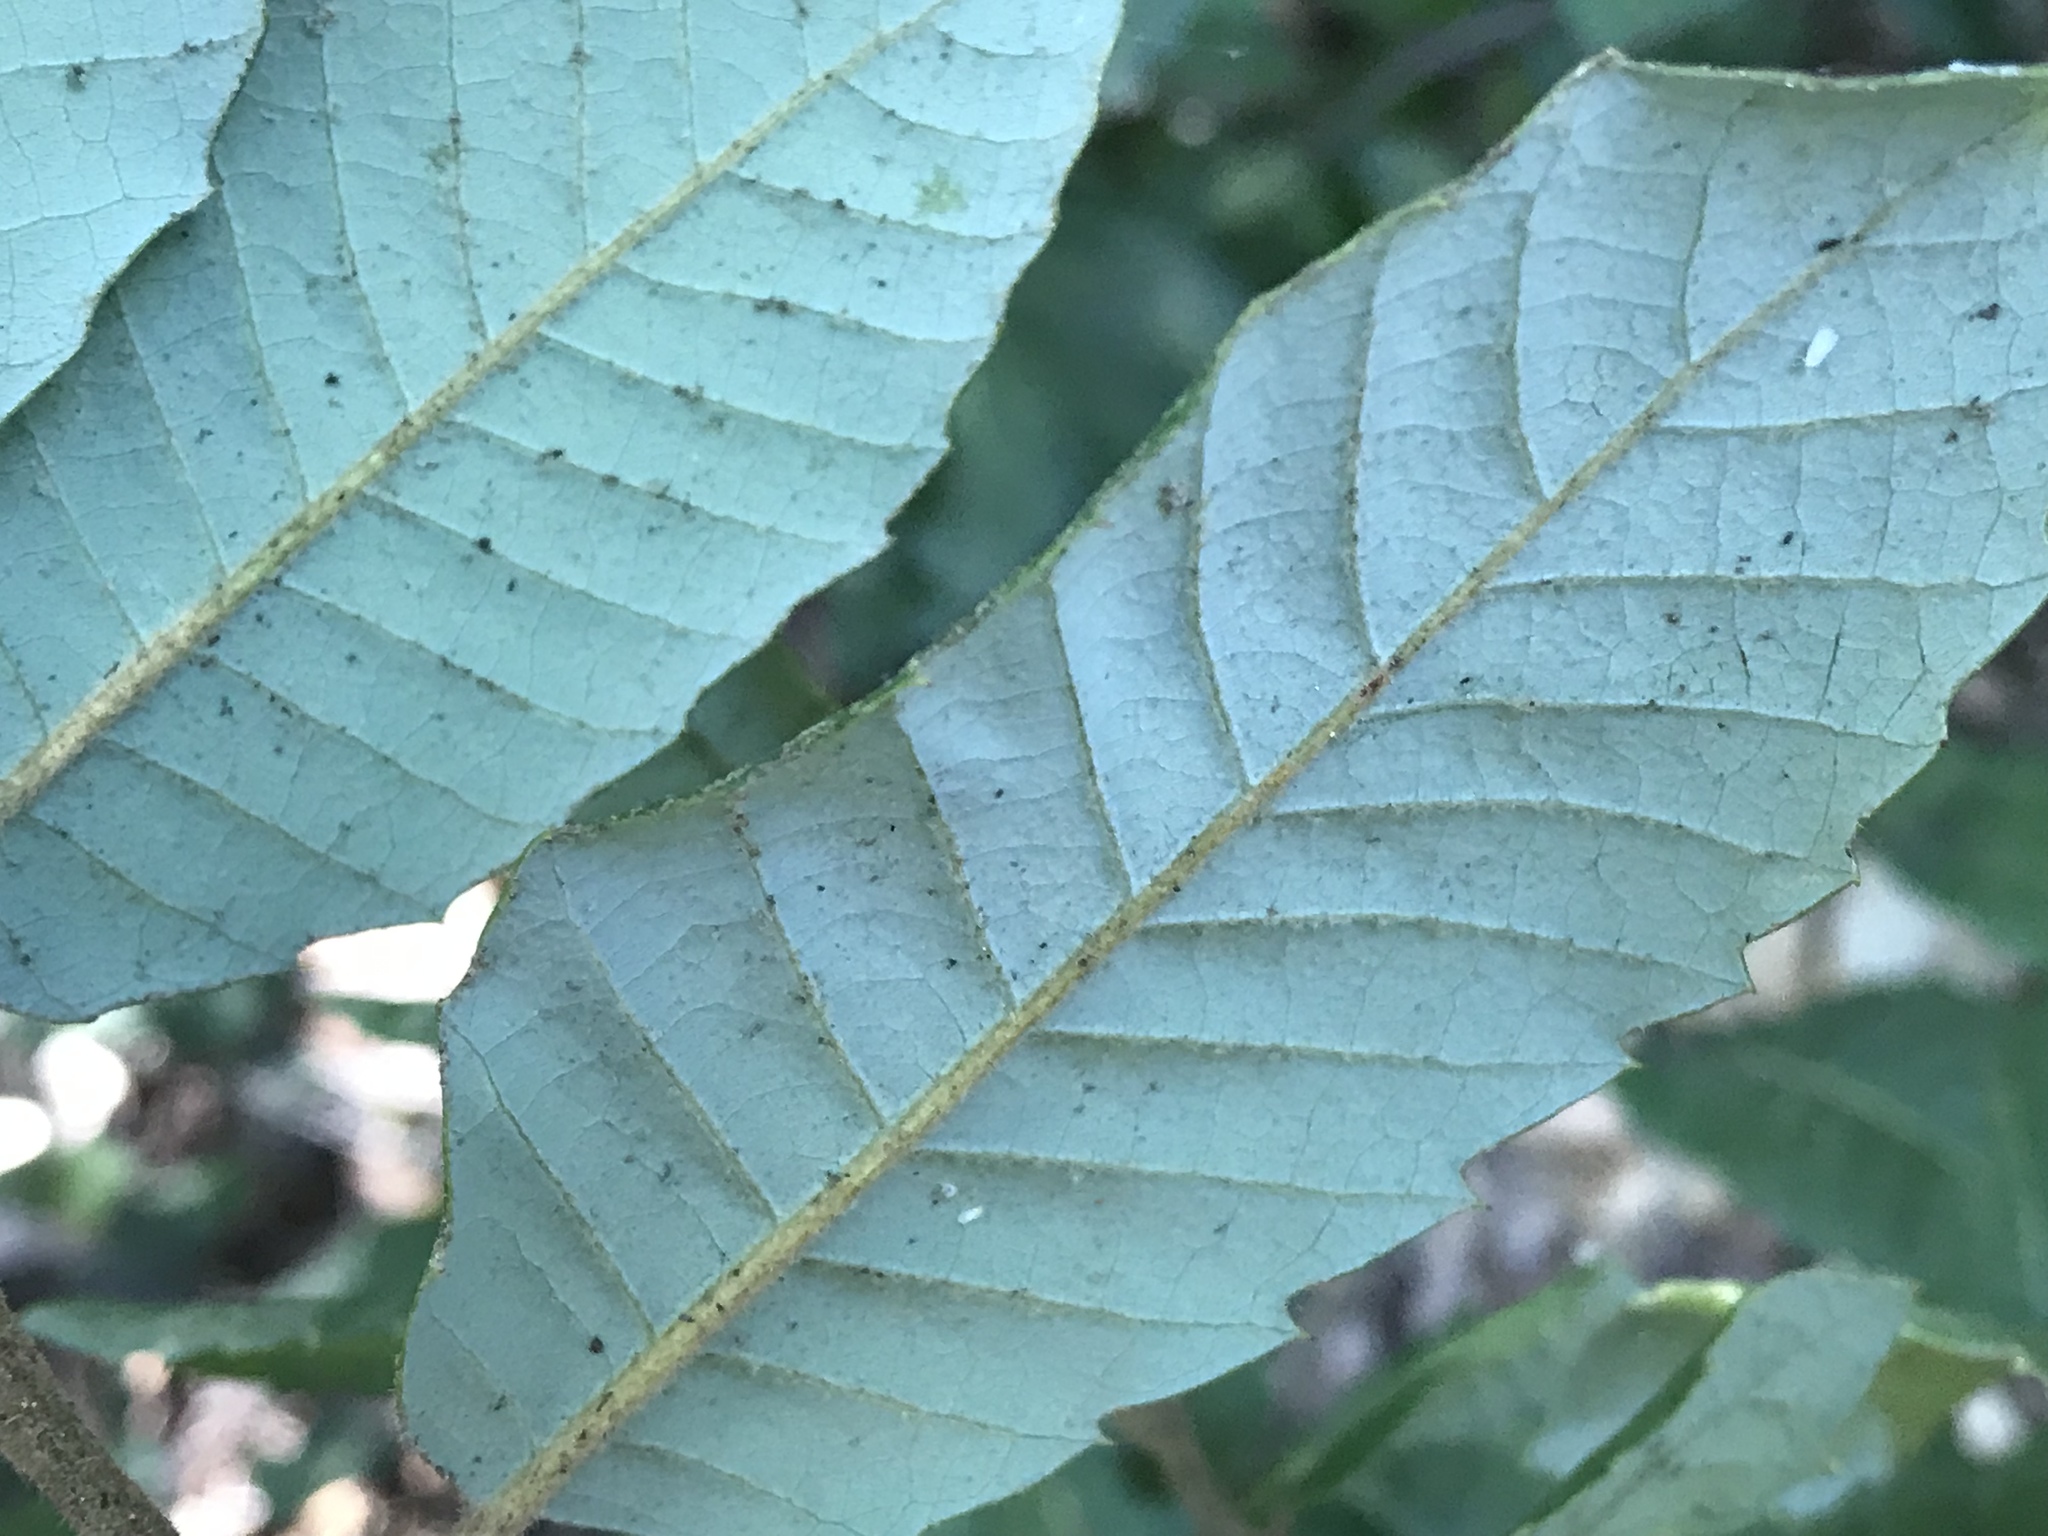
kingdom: Plantae
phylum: Tracheophyta
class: Magnoliopsida
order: Fagales
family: Fagaceae
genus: Notholithocarpus
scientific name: Notholithocarpus densiflorus
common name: Tan bark oak
